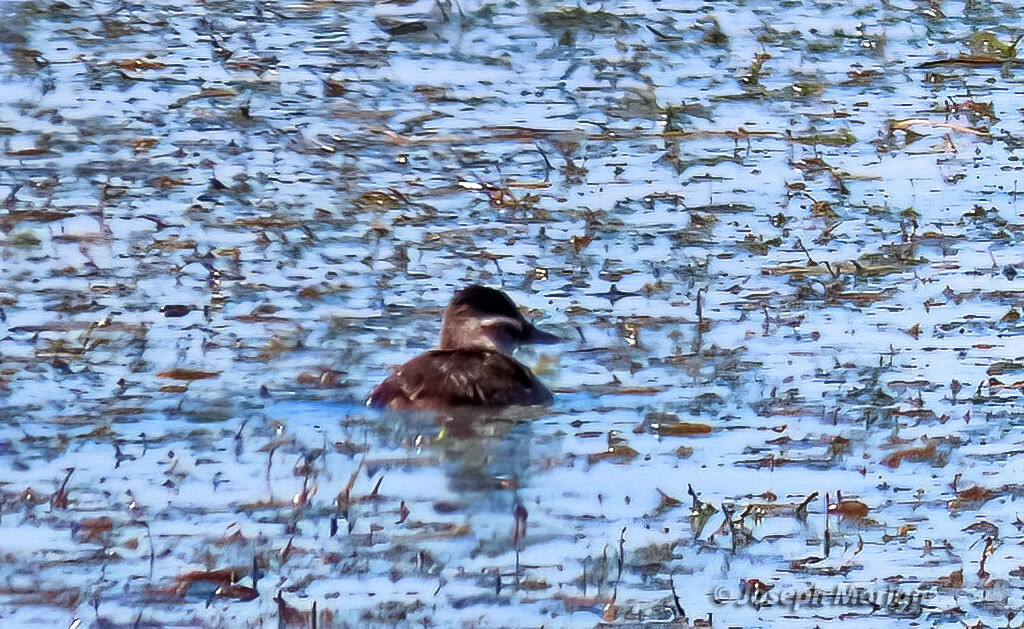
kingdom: Animalia
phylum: Chordata
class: Aves
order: Anseriformes
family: Anatidae
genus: Oxyura
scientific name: Oxyura vittata
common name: Lake duck
